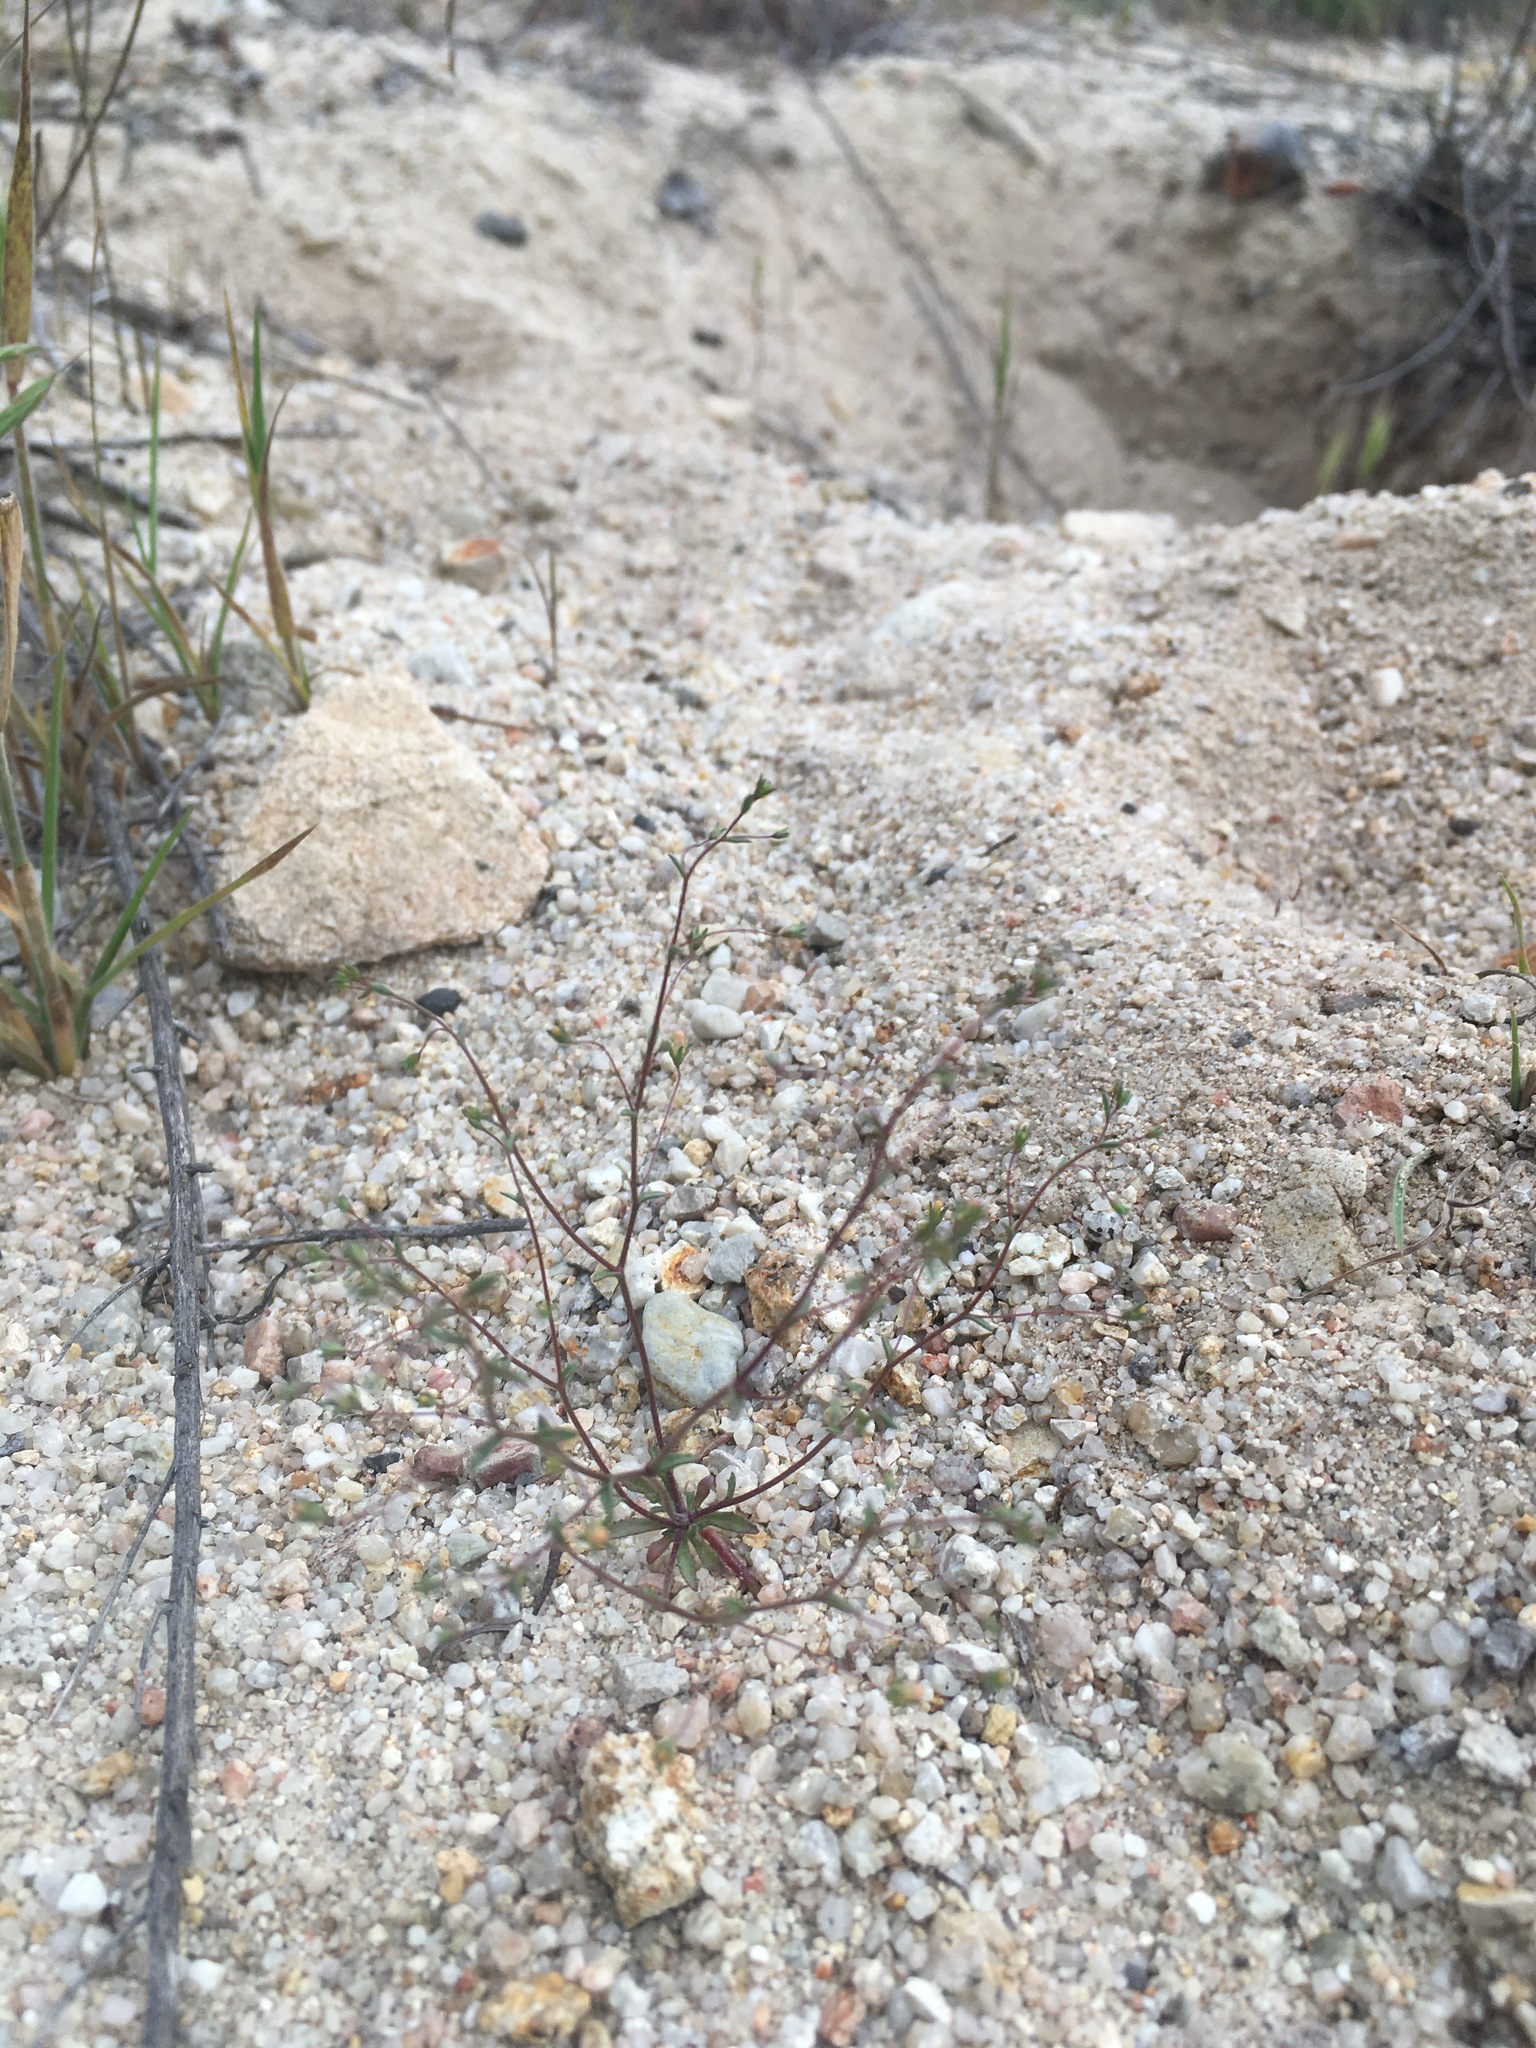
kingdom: Plantae
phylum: Tracheophyta
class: Magnoliopsida
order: Asterales
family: Campanulaceae
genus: Nemacladus
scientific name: Nemacladus secundiflorus
